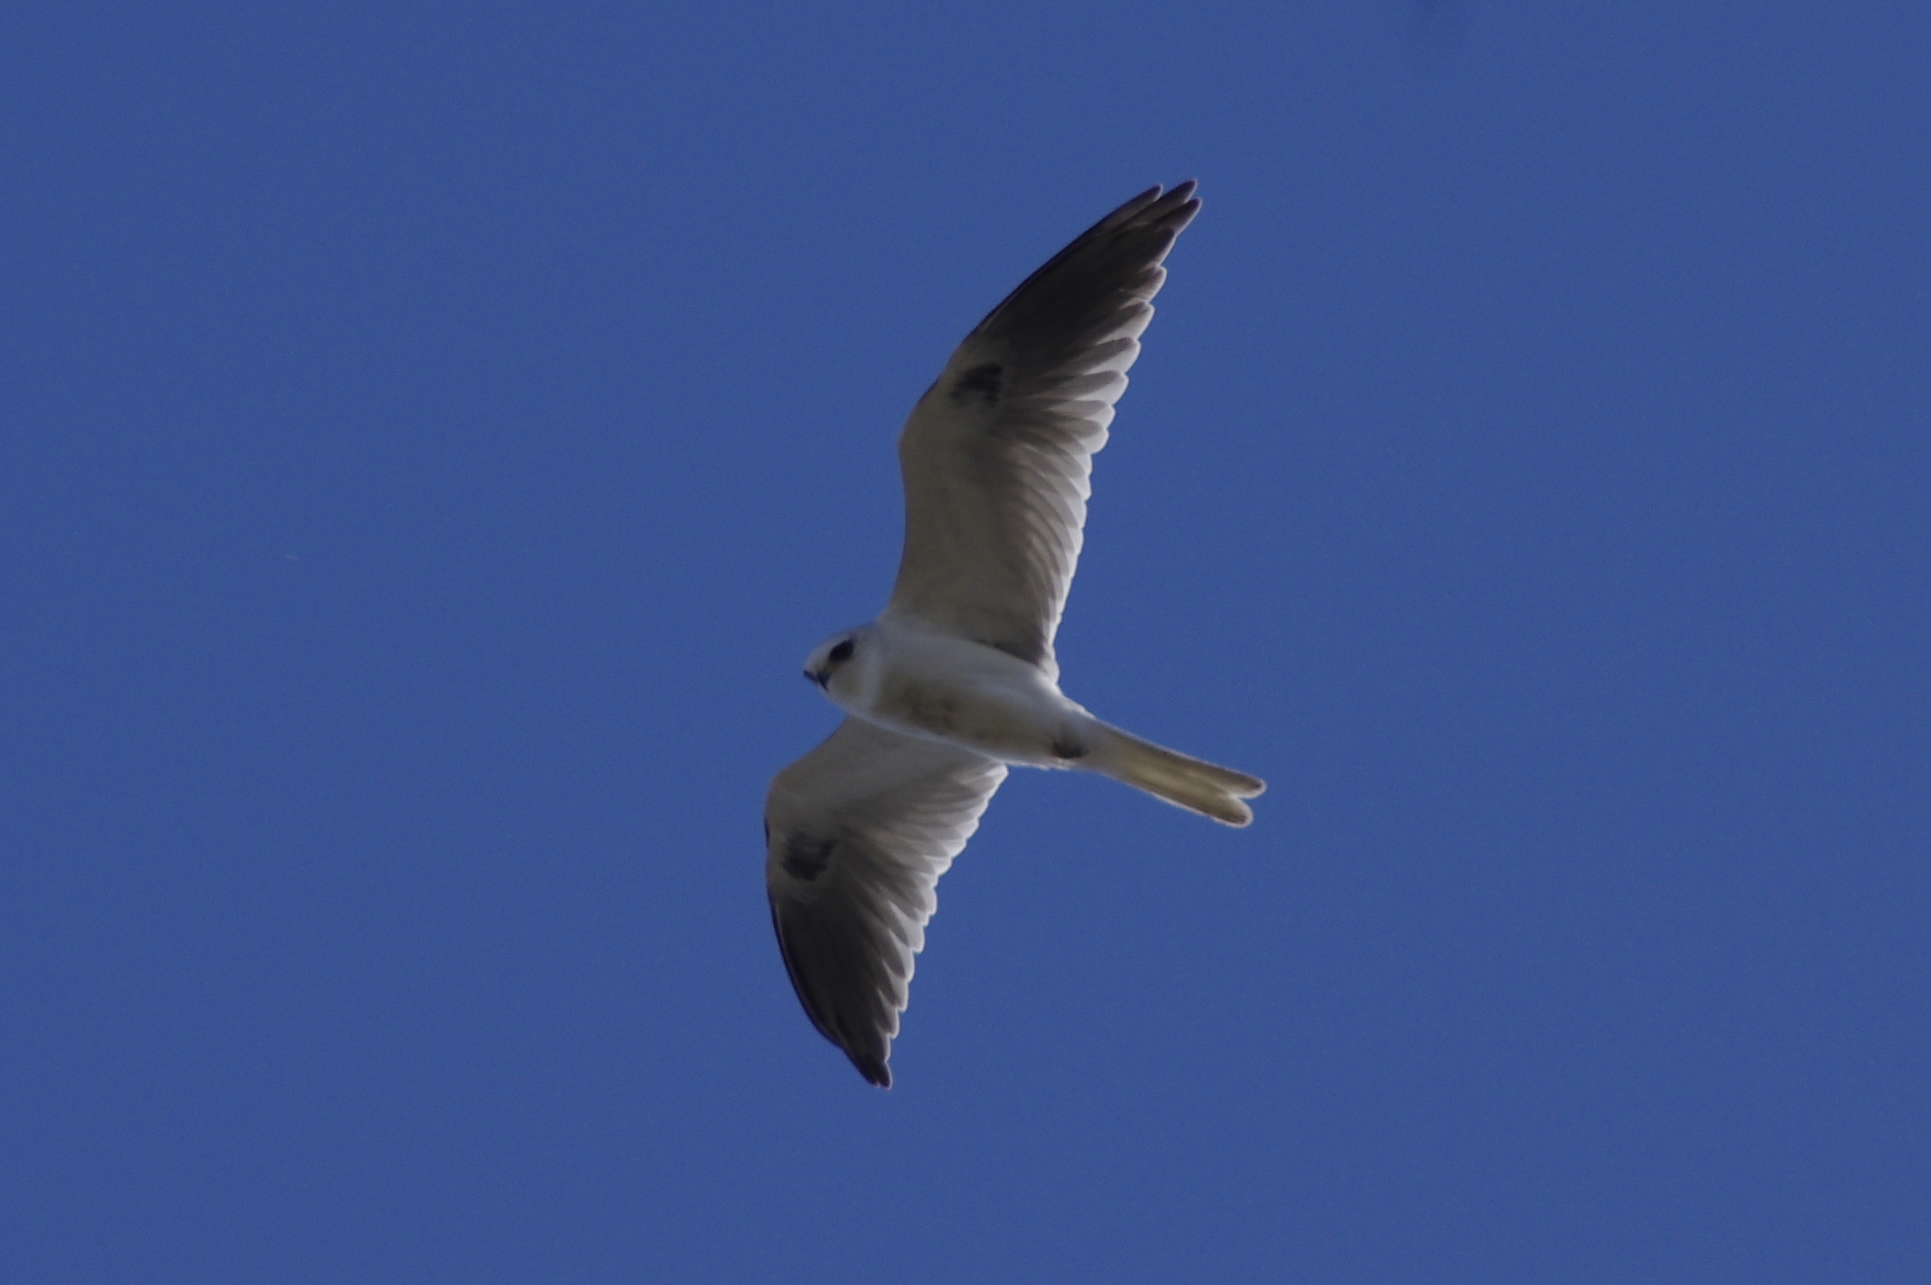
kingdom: Animalia
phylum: Chordata
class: Aves
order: Accipitriformes
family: Accipitridae
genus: Elanus
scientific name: Elanus leucurus
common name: White-tailed kite
